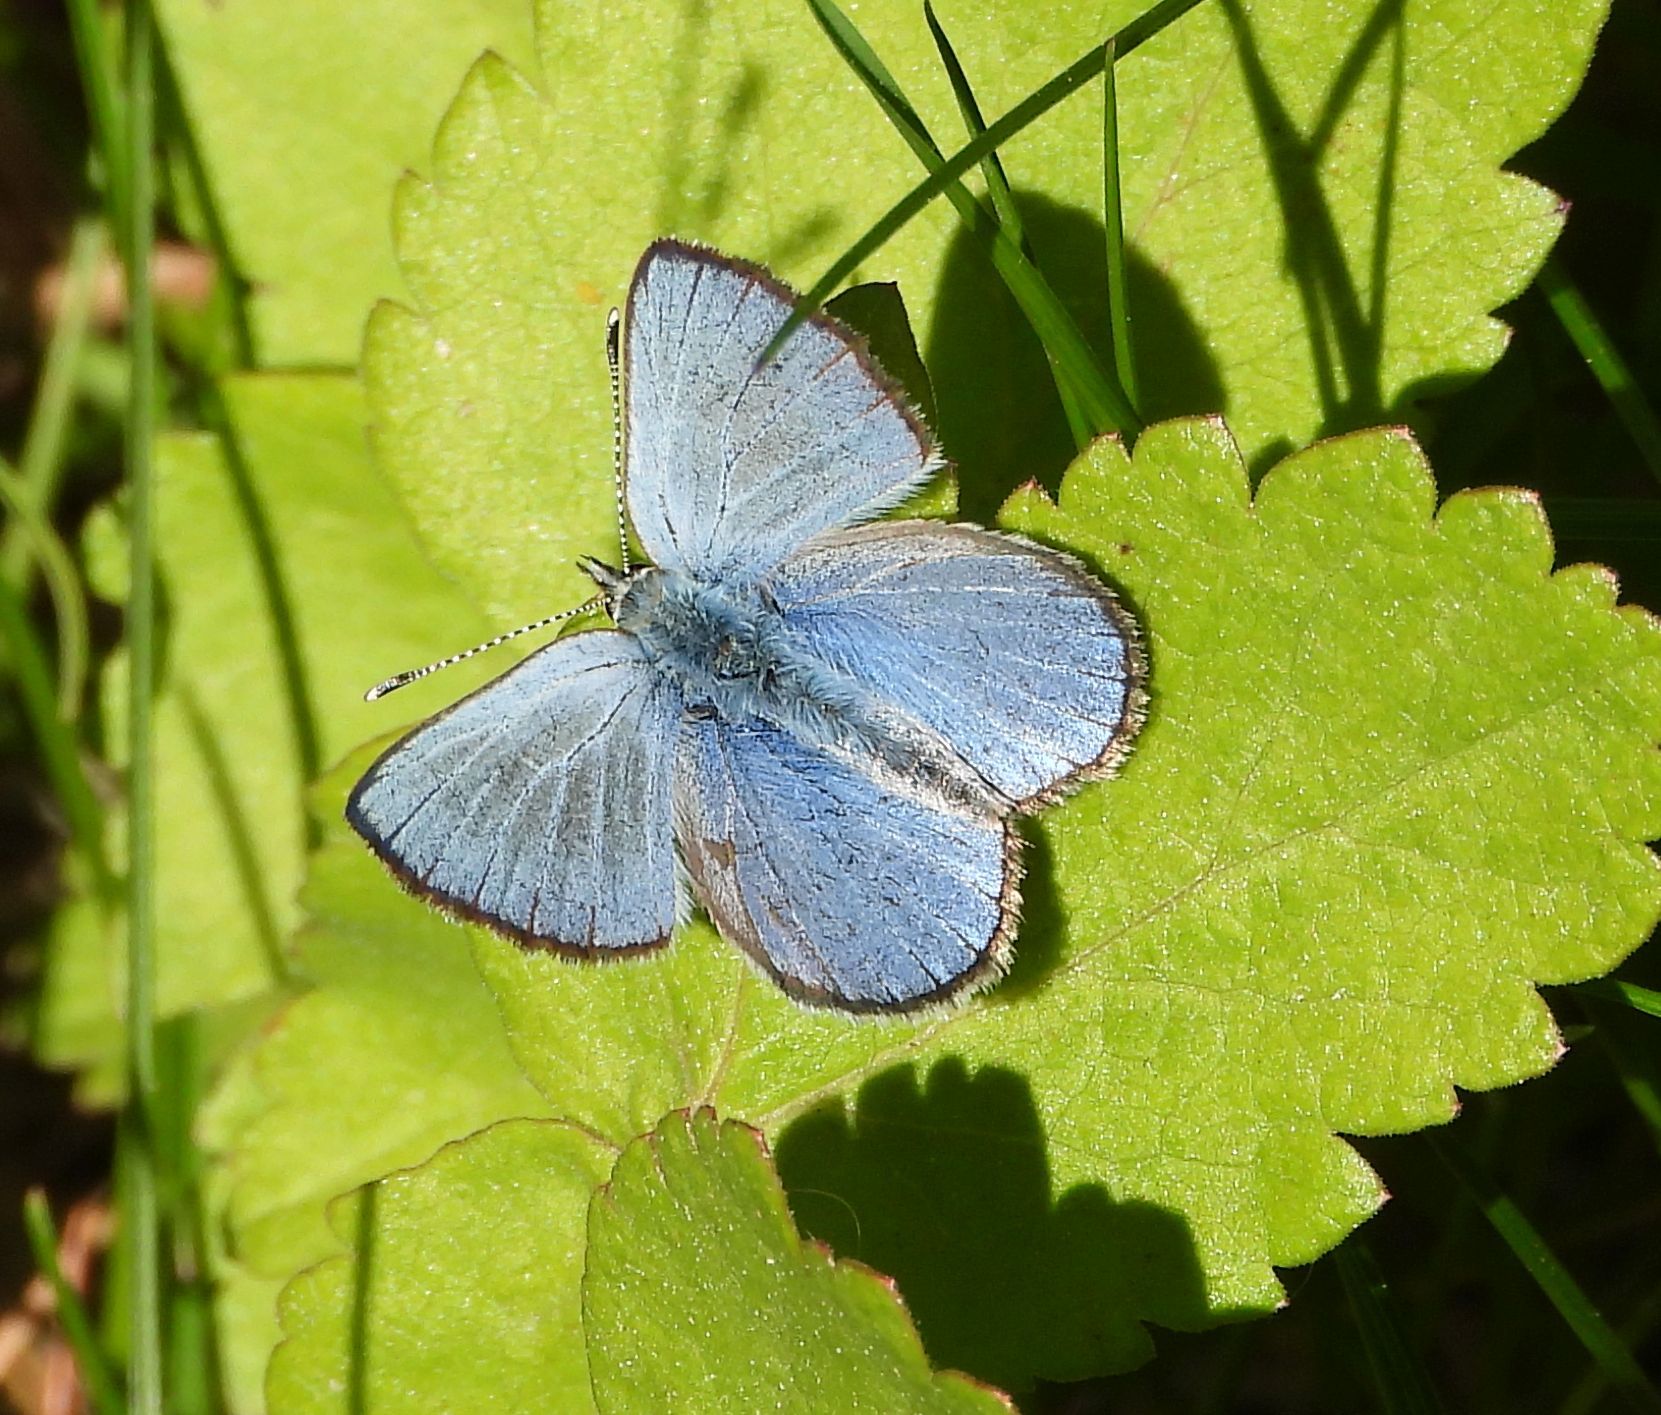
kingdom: Animalia
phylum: Arthropoda
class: Insecta
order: Lepidoptera
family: Lycaenidae
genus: Glaucopsyche
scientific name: Glaucopsyche lygdamus
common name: Silvery blue
